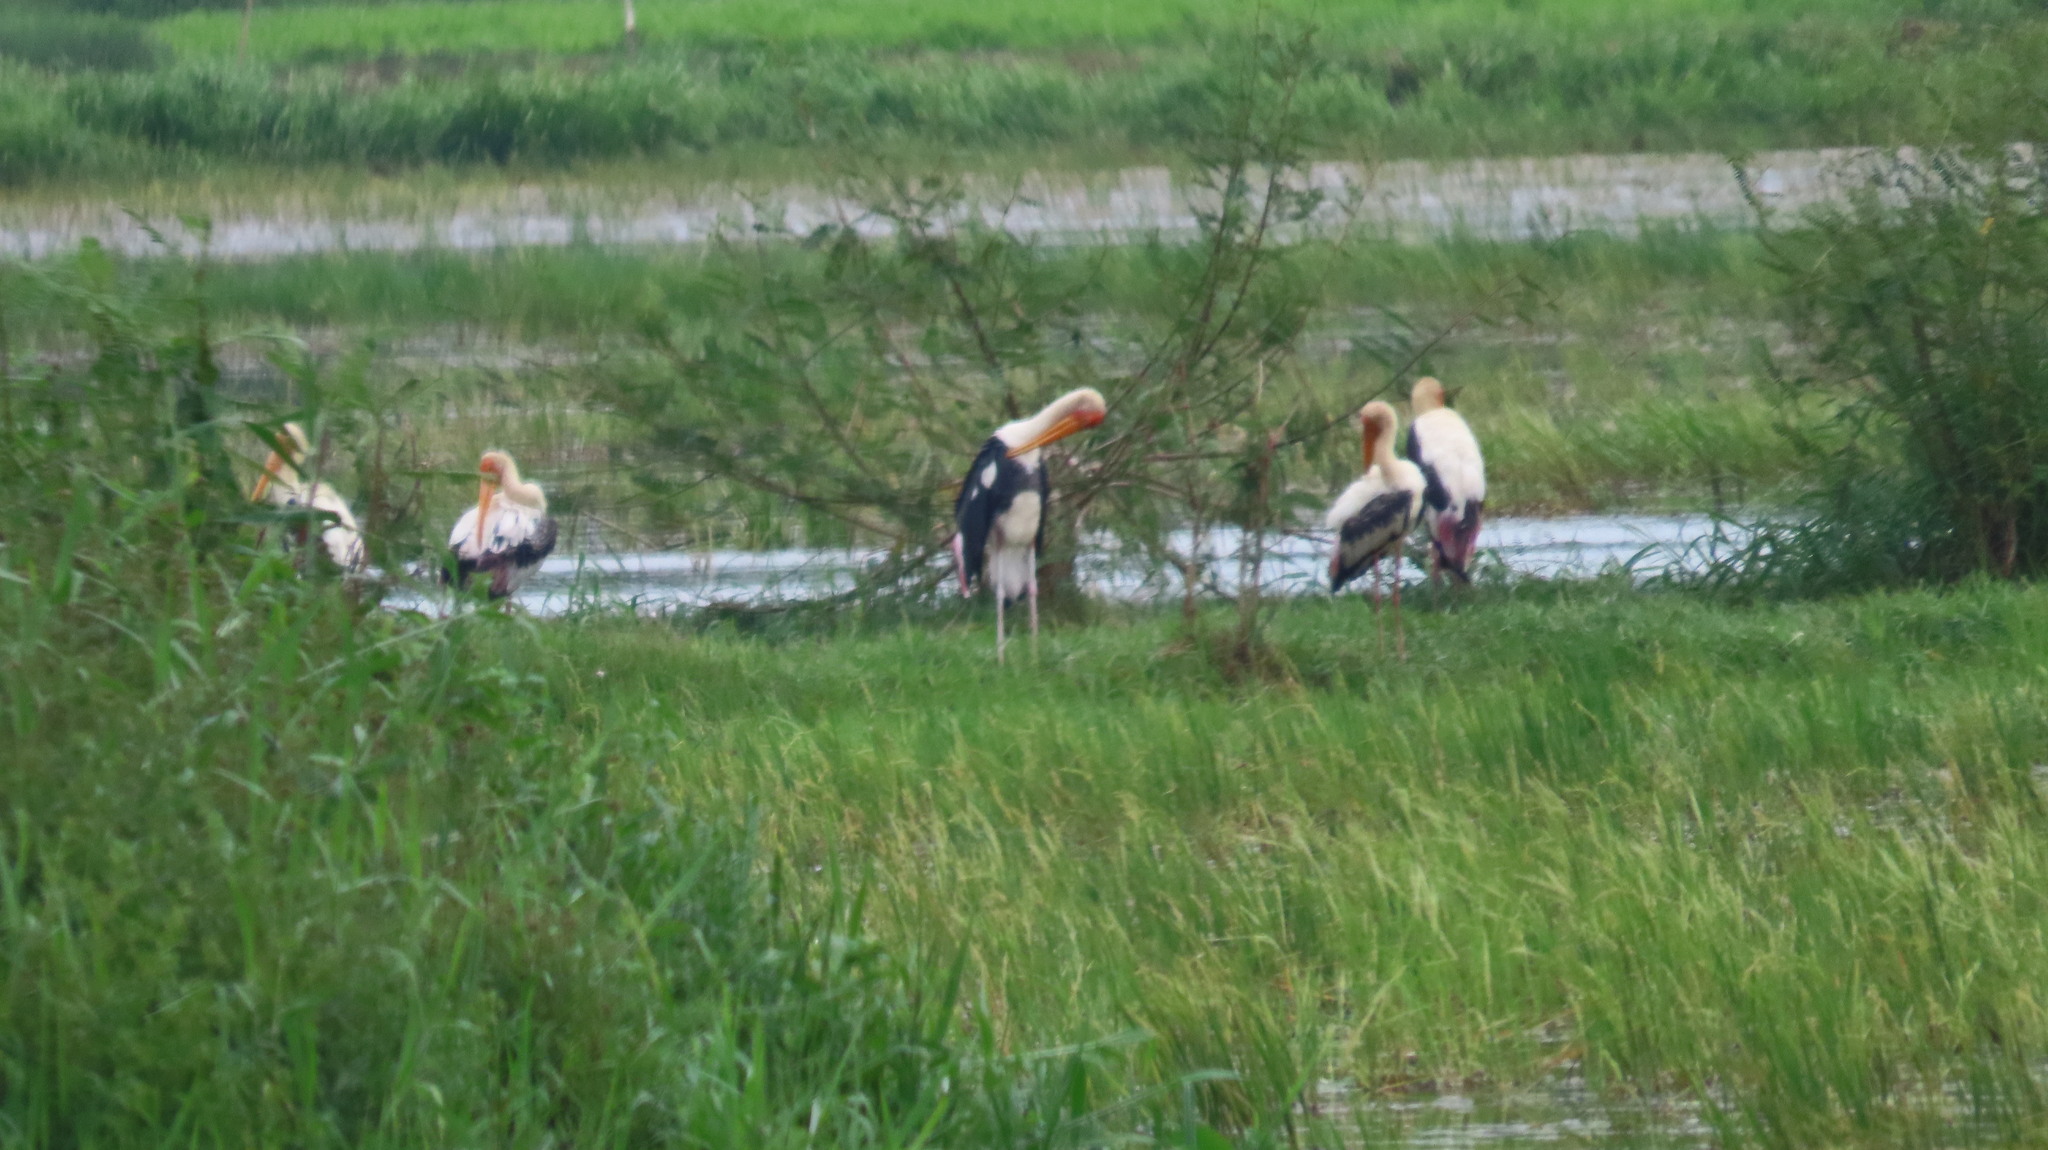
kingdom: Animalia
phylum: Chordata
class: Aves
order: Ciconiiformes
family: Ciconiidae
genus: Mycteria
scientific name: Mycteria leucocephala
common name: Painted stork
